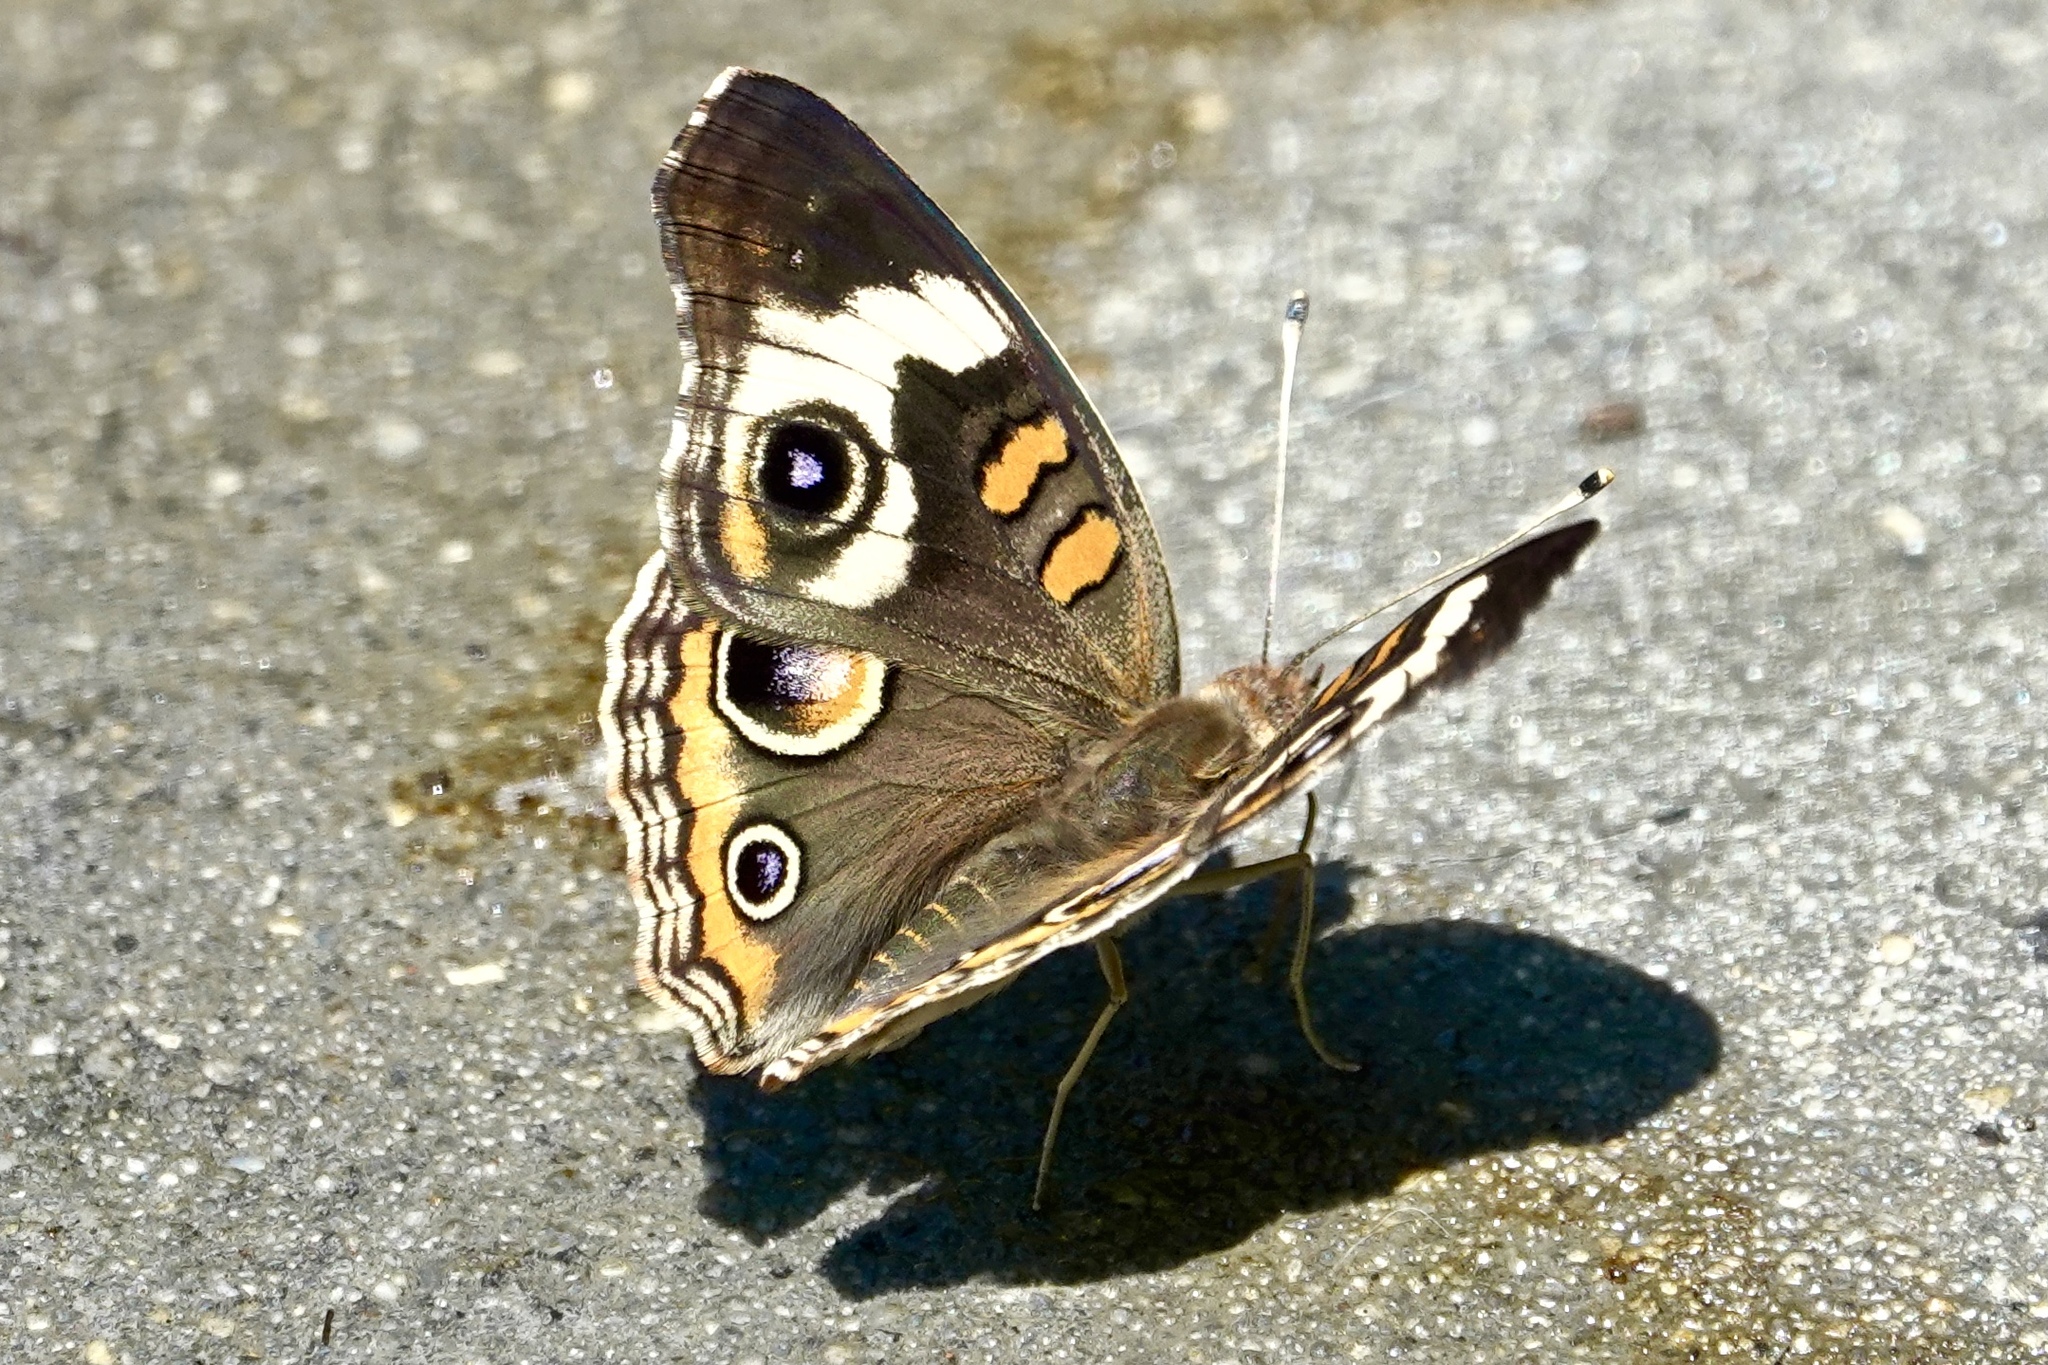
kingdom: Animalia
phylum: Arthropoda
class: Insecta
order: Lepidoptera
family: Nymphalidae
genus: Junonia
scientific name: Junonia coenia
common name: Common buckeye
